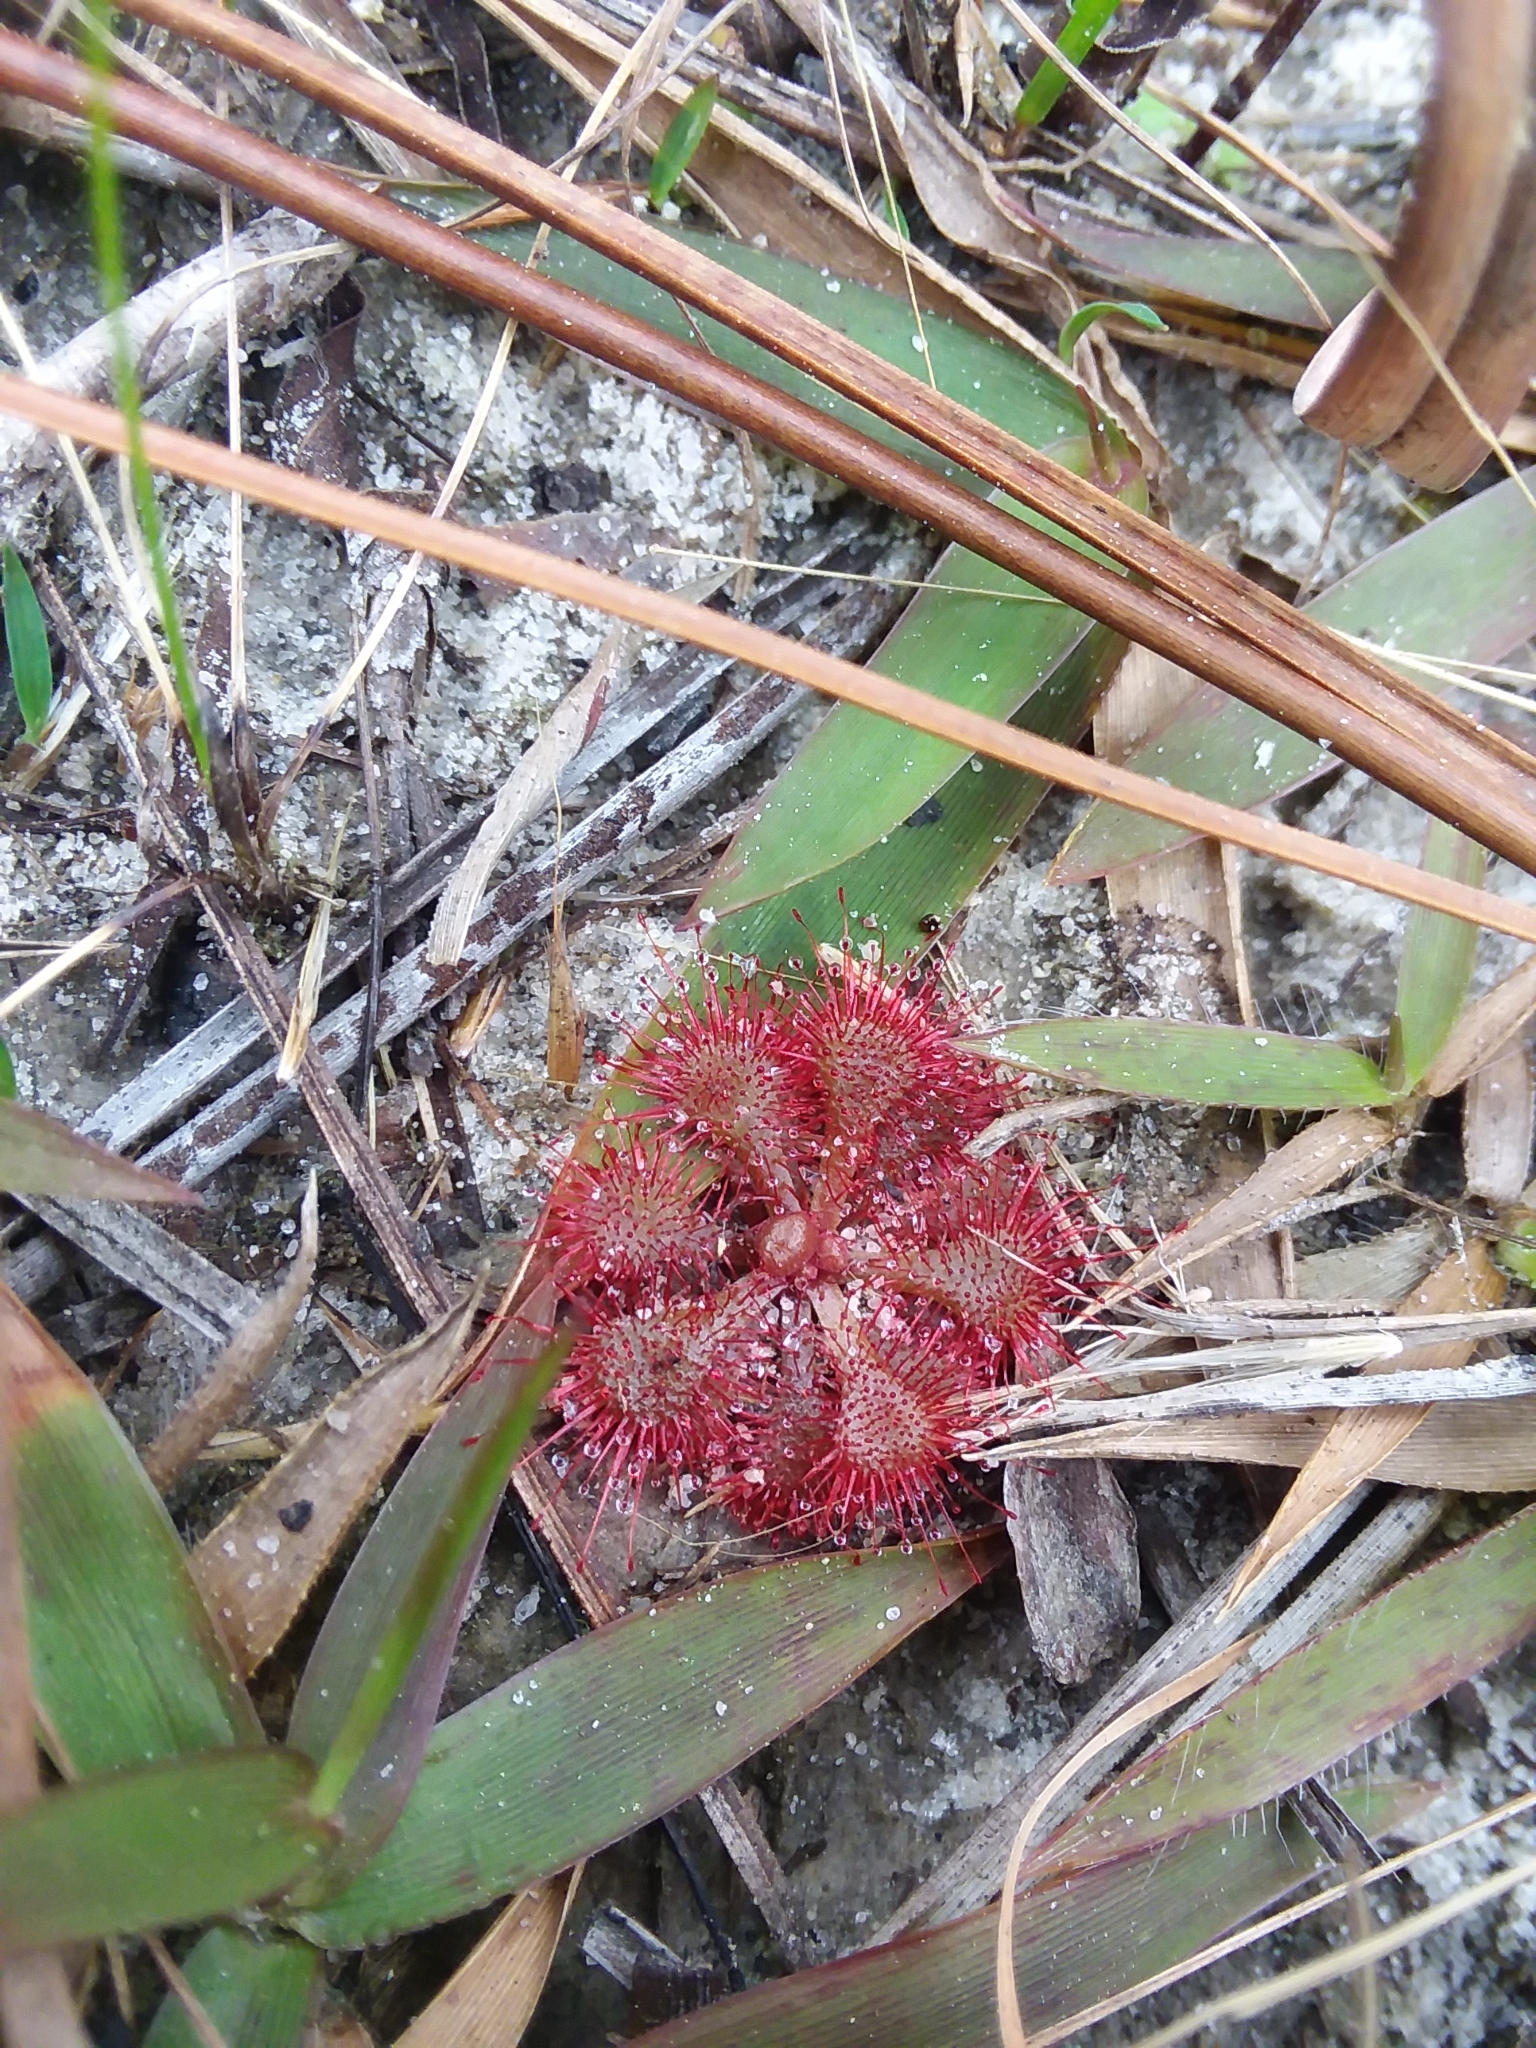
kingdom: Plantae
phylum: Tracheophyta
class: Magnoliopsida
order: Caryophyllales
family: Droseraceae
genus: Drosera
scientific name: Drosera brevifolia
